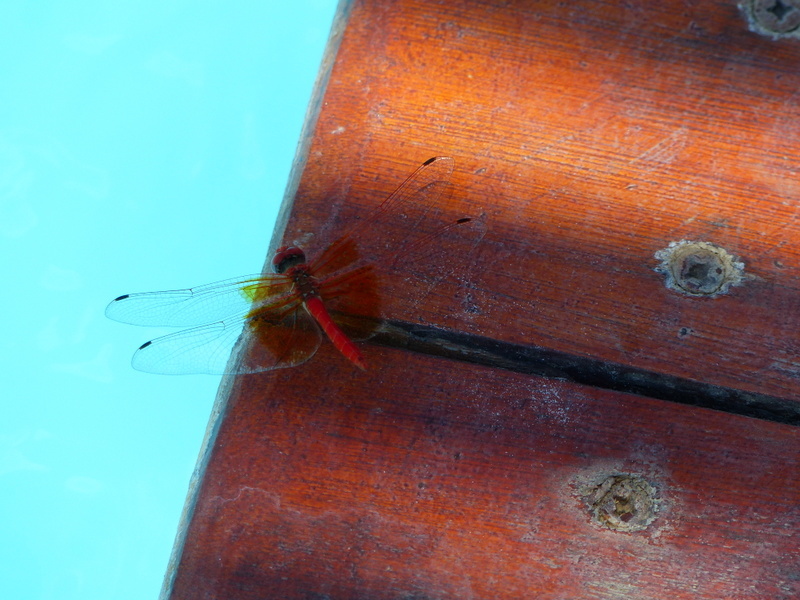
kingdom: Animalia
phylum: Arthropoda
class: Insecta
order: Odonata
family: Libellulidae
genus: Trithemis
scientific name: Trithemis kirbyi
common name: Kirby's dropwing
